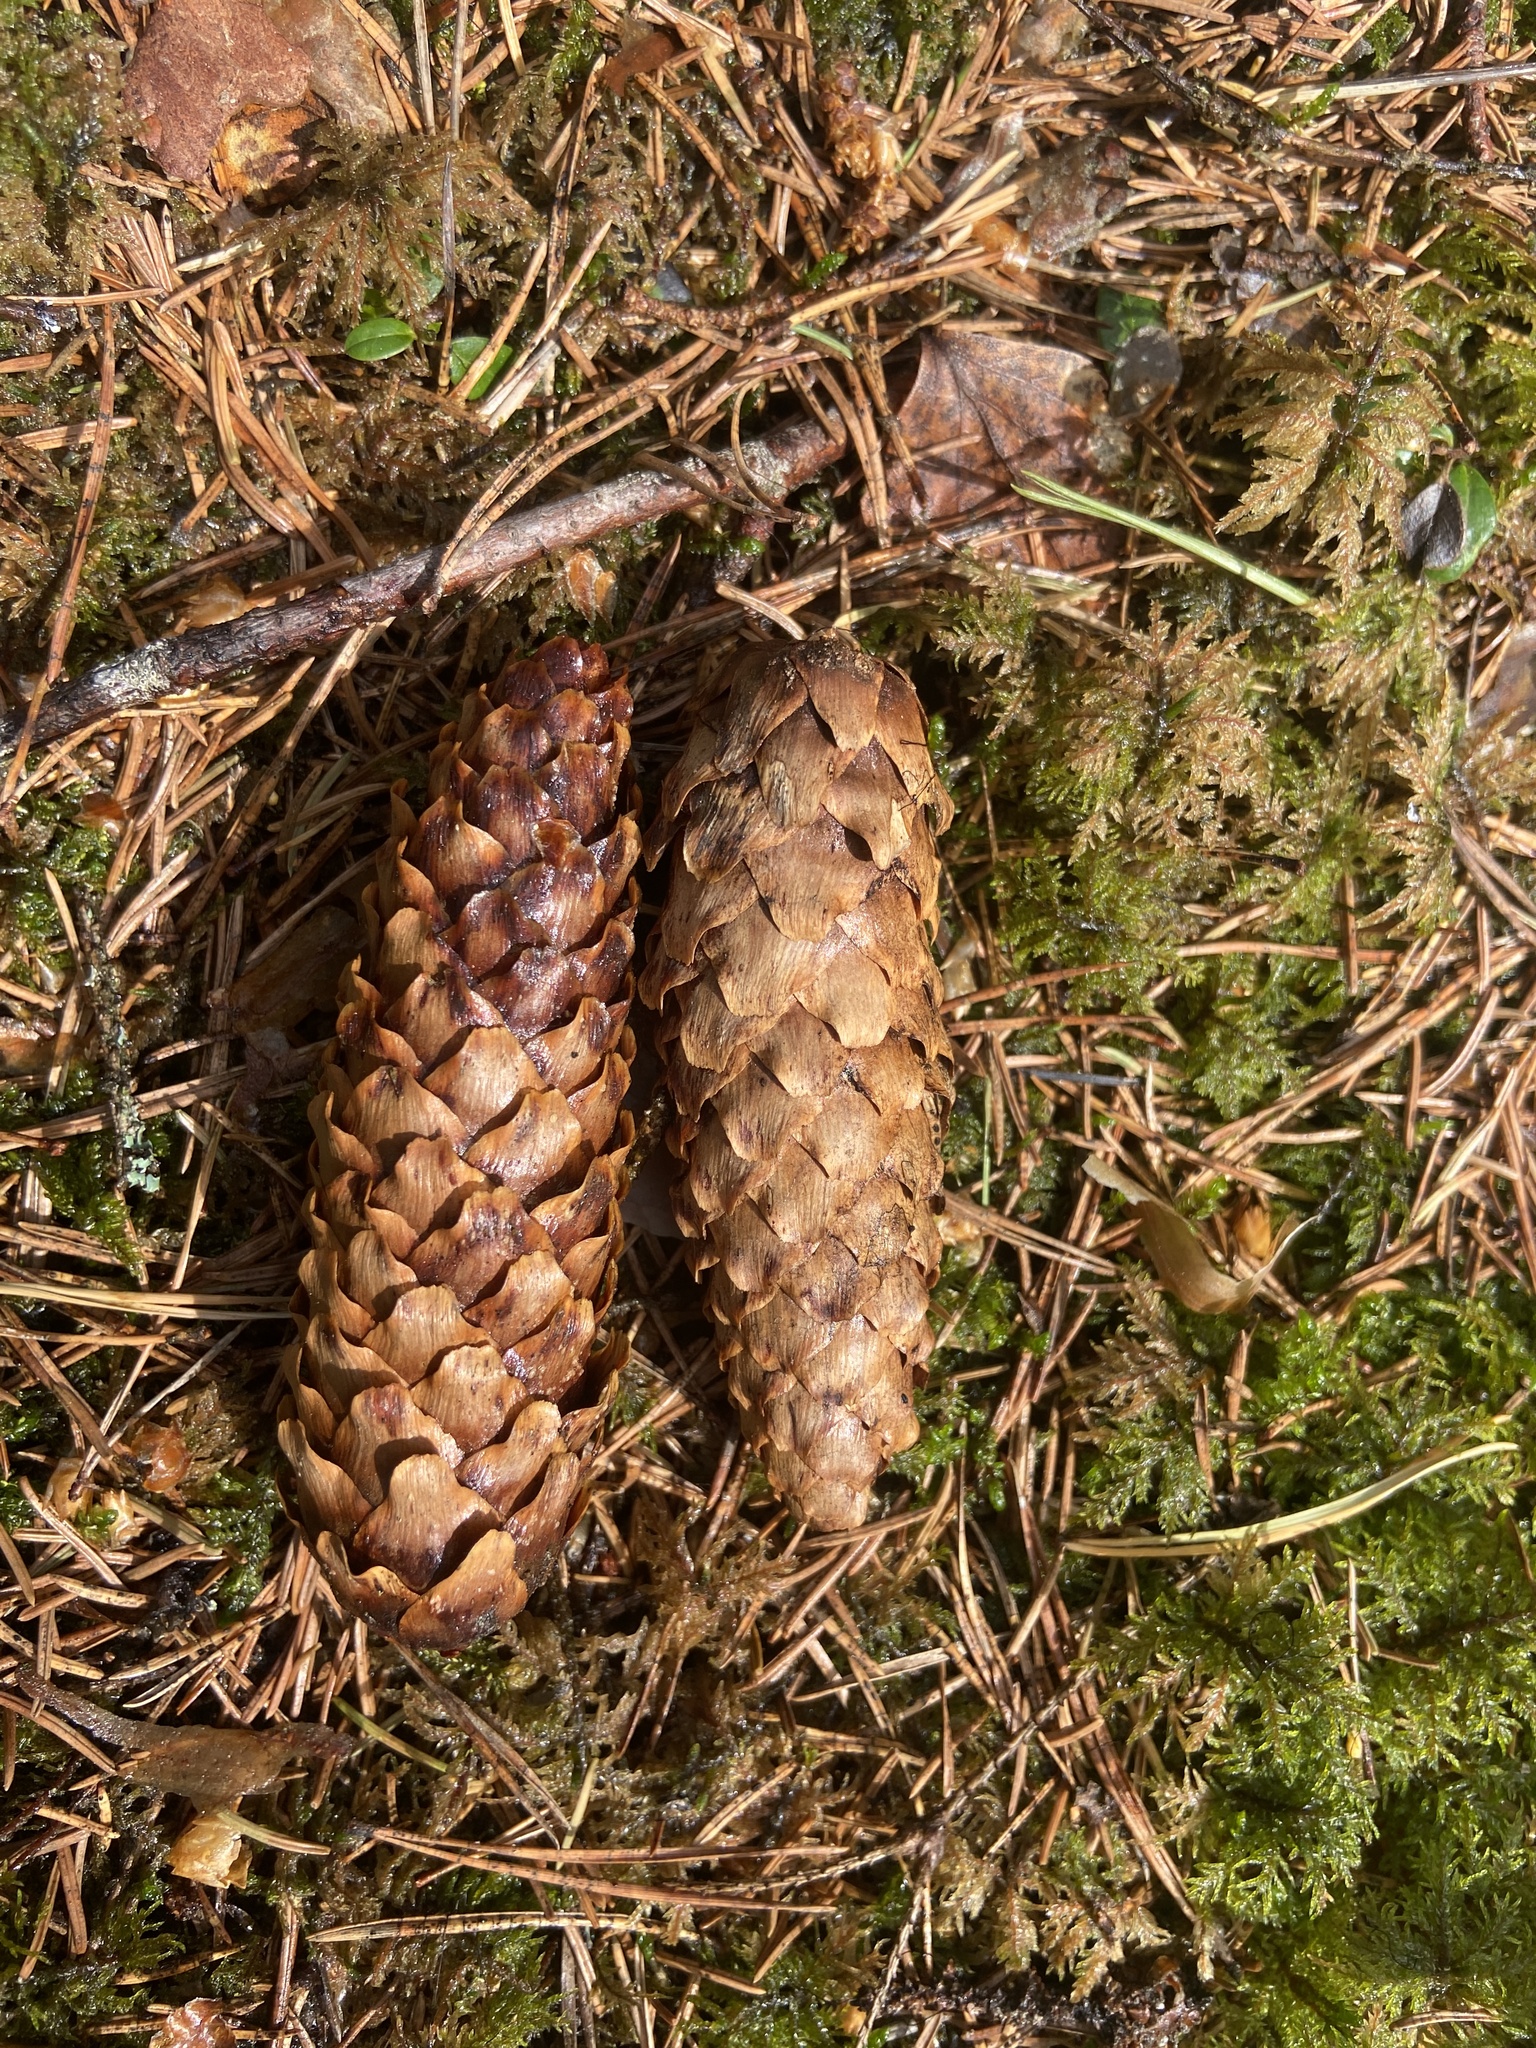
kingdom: Plantae
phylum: Tracheophyta
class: Pinopsida
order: Pinales
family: Pinaceae
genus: Picea
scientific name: Picea abies
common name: Norway spruce
